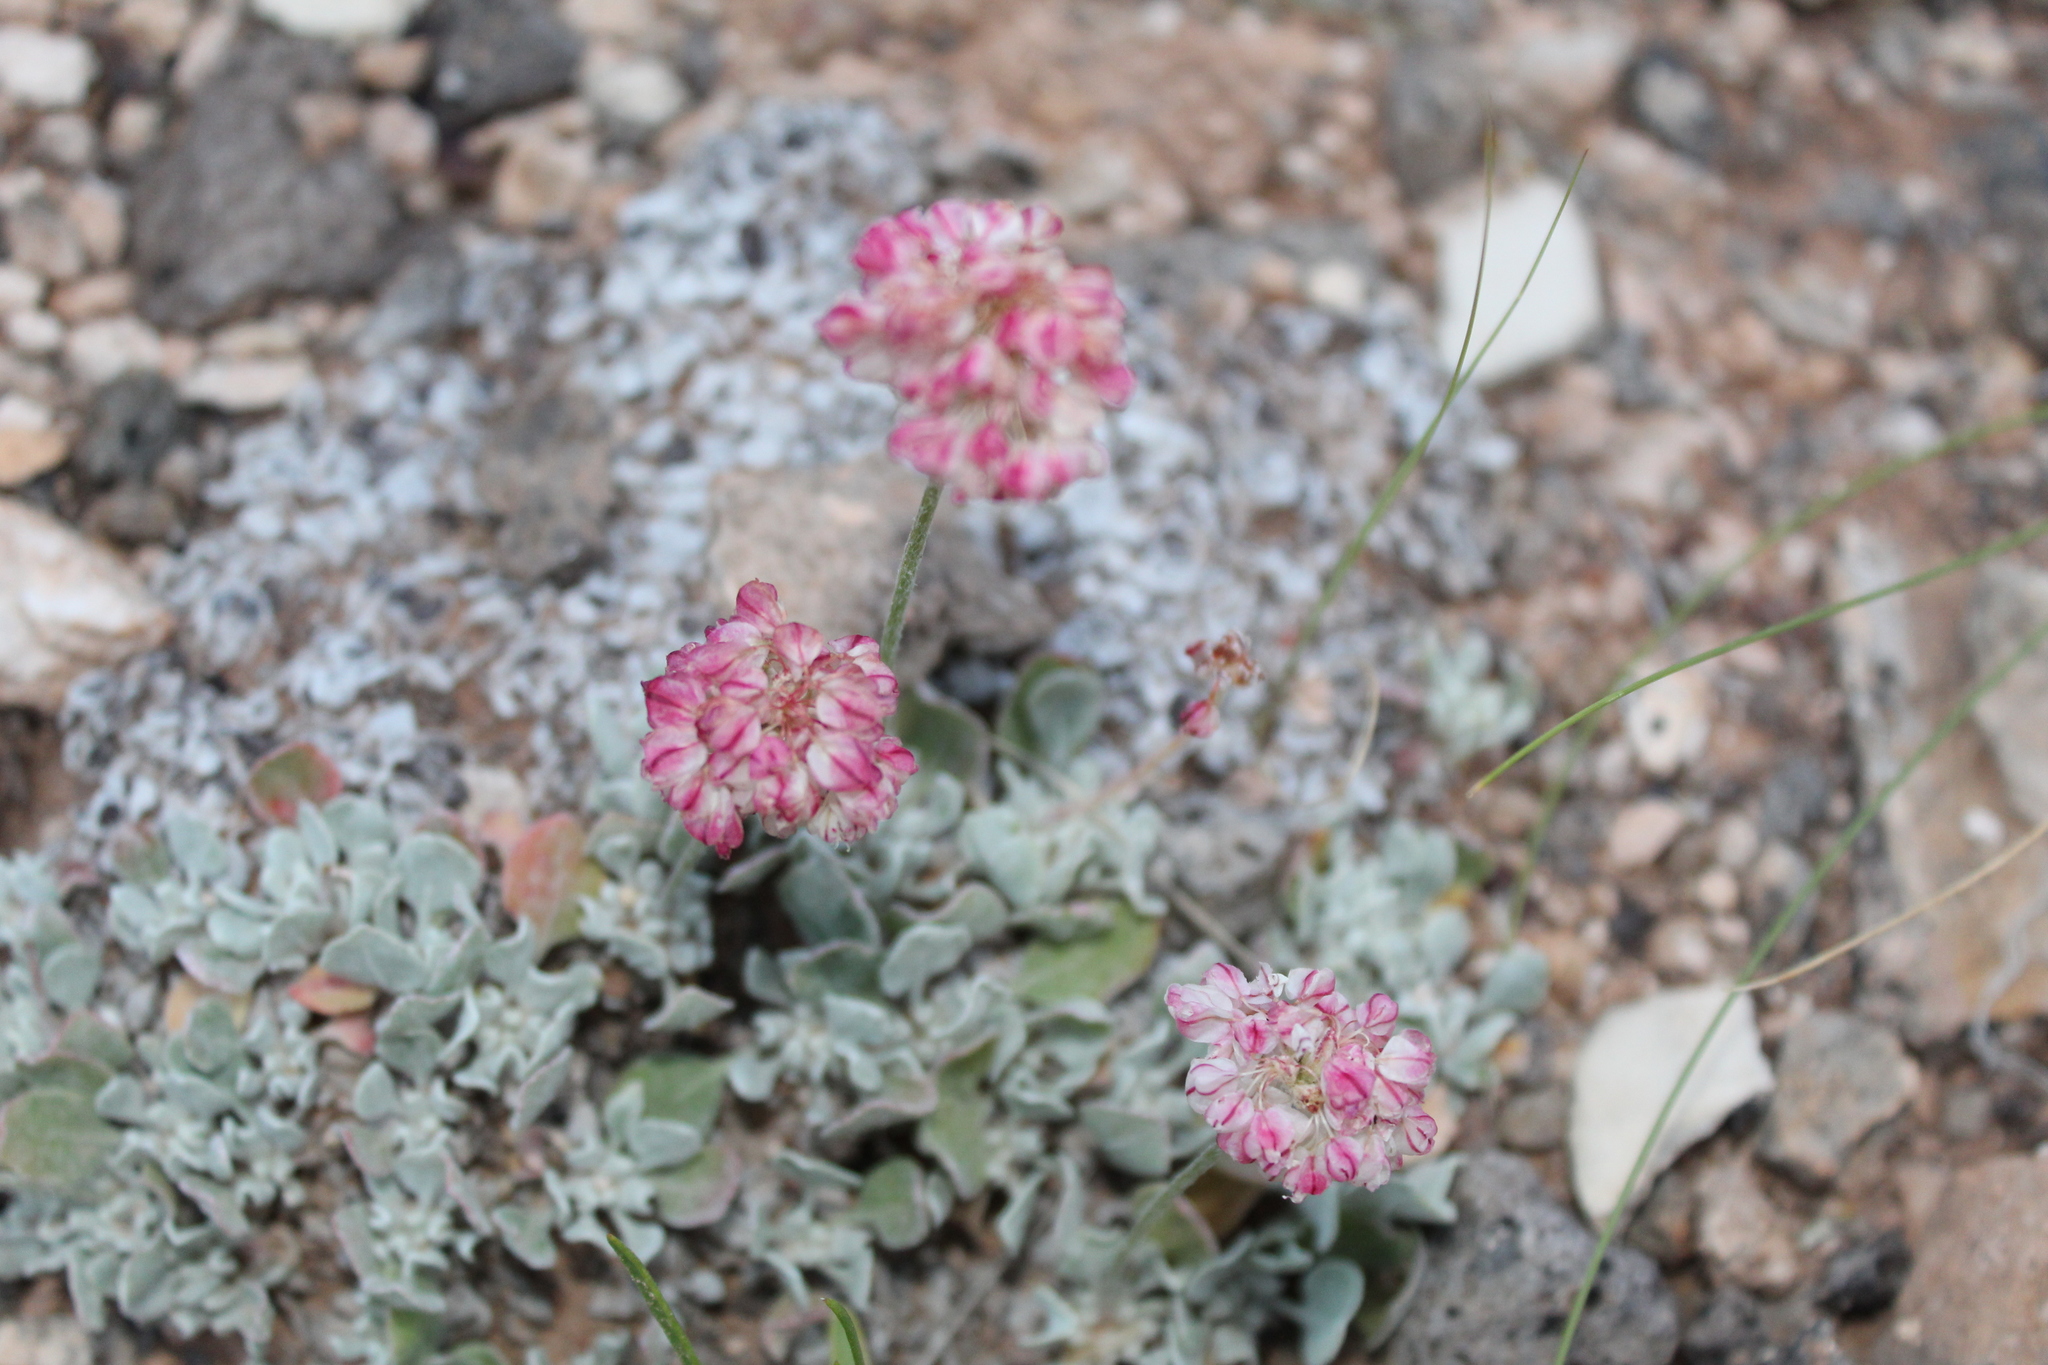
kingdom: Plantae
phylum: Tracheophyta
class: Magnoliopsida
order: Caryophyllales
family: Polygonaceae
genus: Eriogonum
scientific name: Eriogonum ovalifolium
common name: Cushion buckwheat
